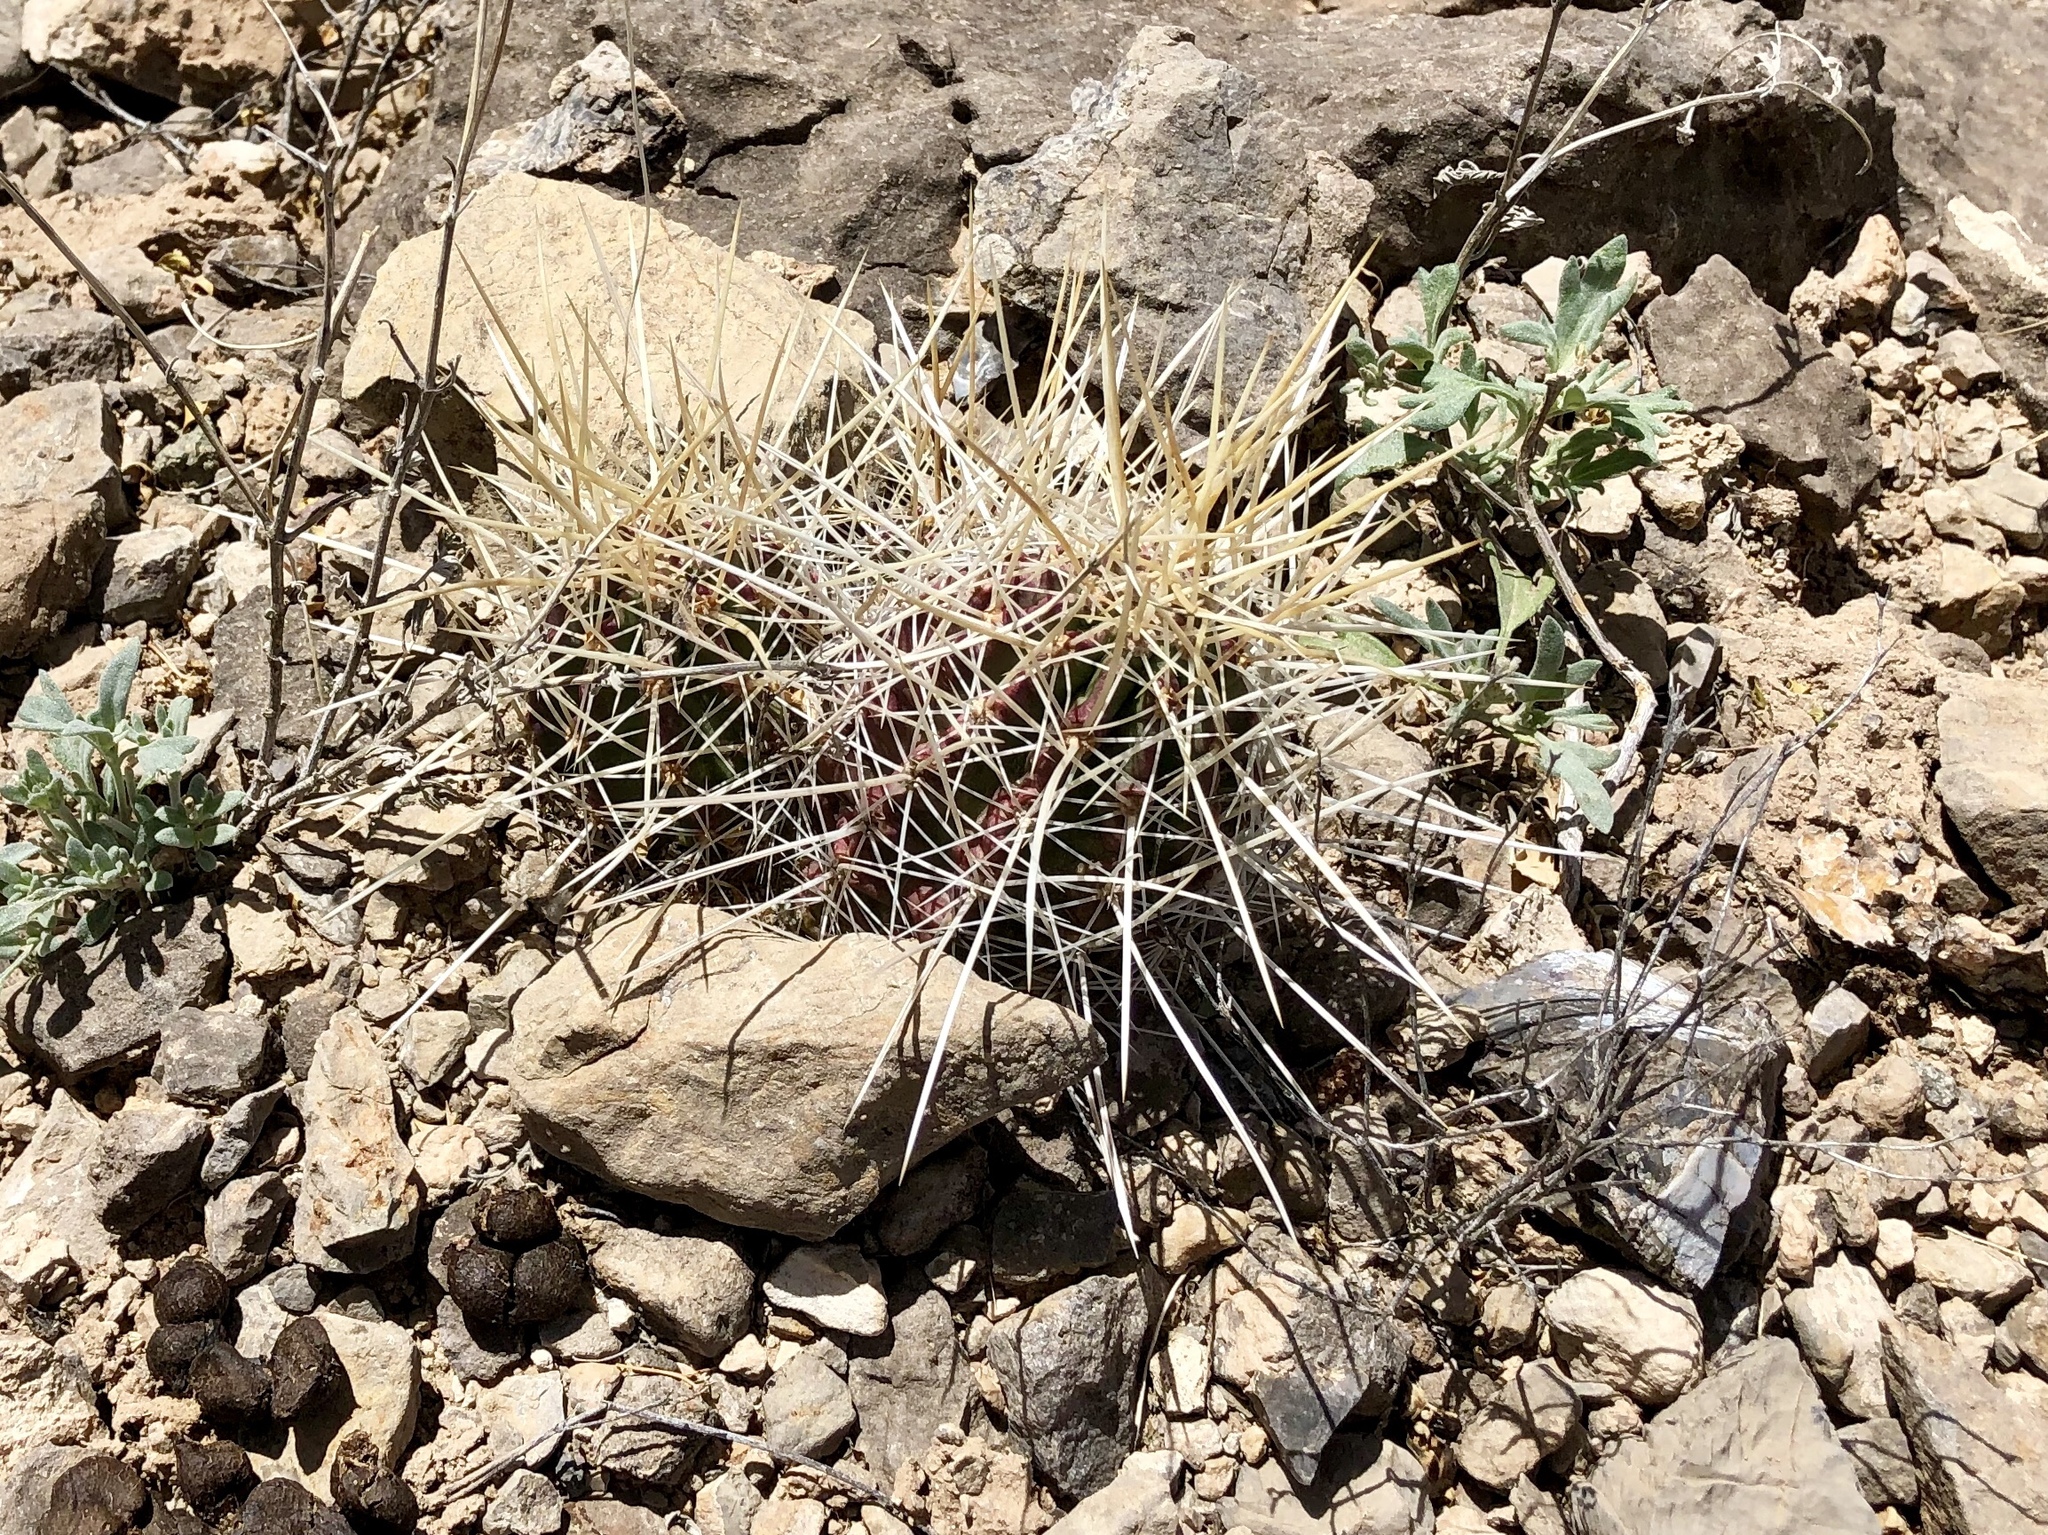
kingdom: Plantae
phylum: Tracheophyta
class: Magnoliopsida
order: Caryophyllales
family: Cactaceae
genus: Echinocereus
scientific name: Echinocereus stramineus
